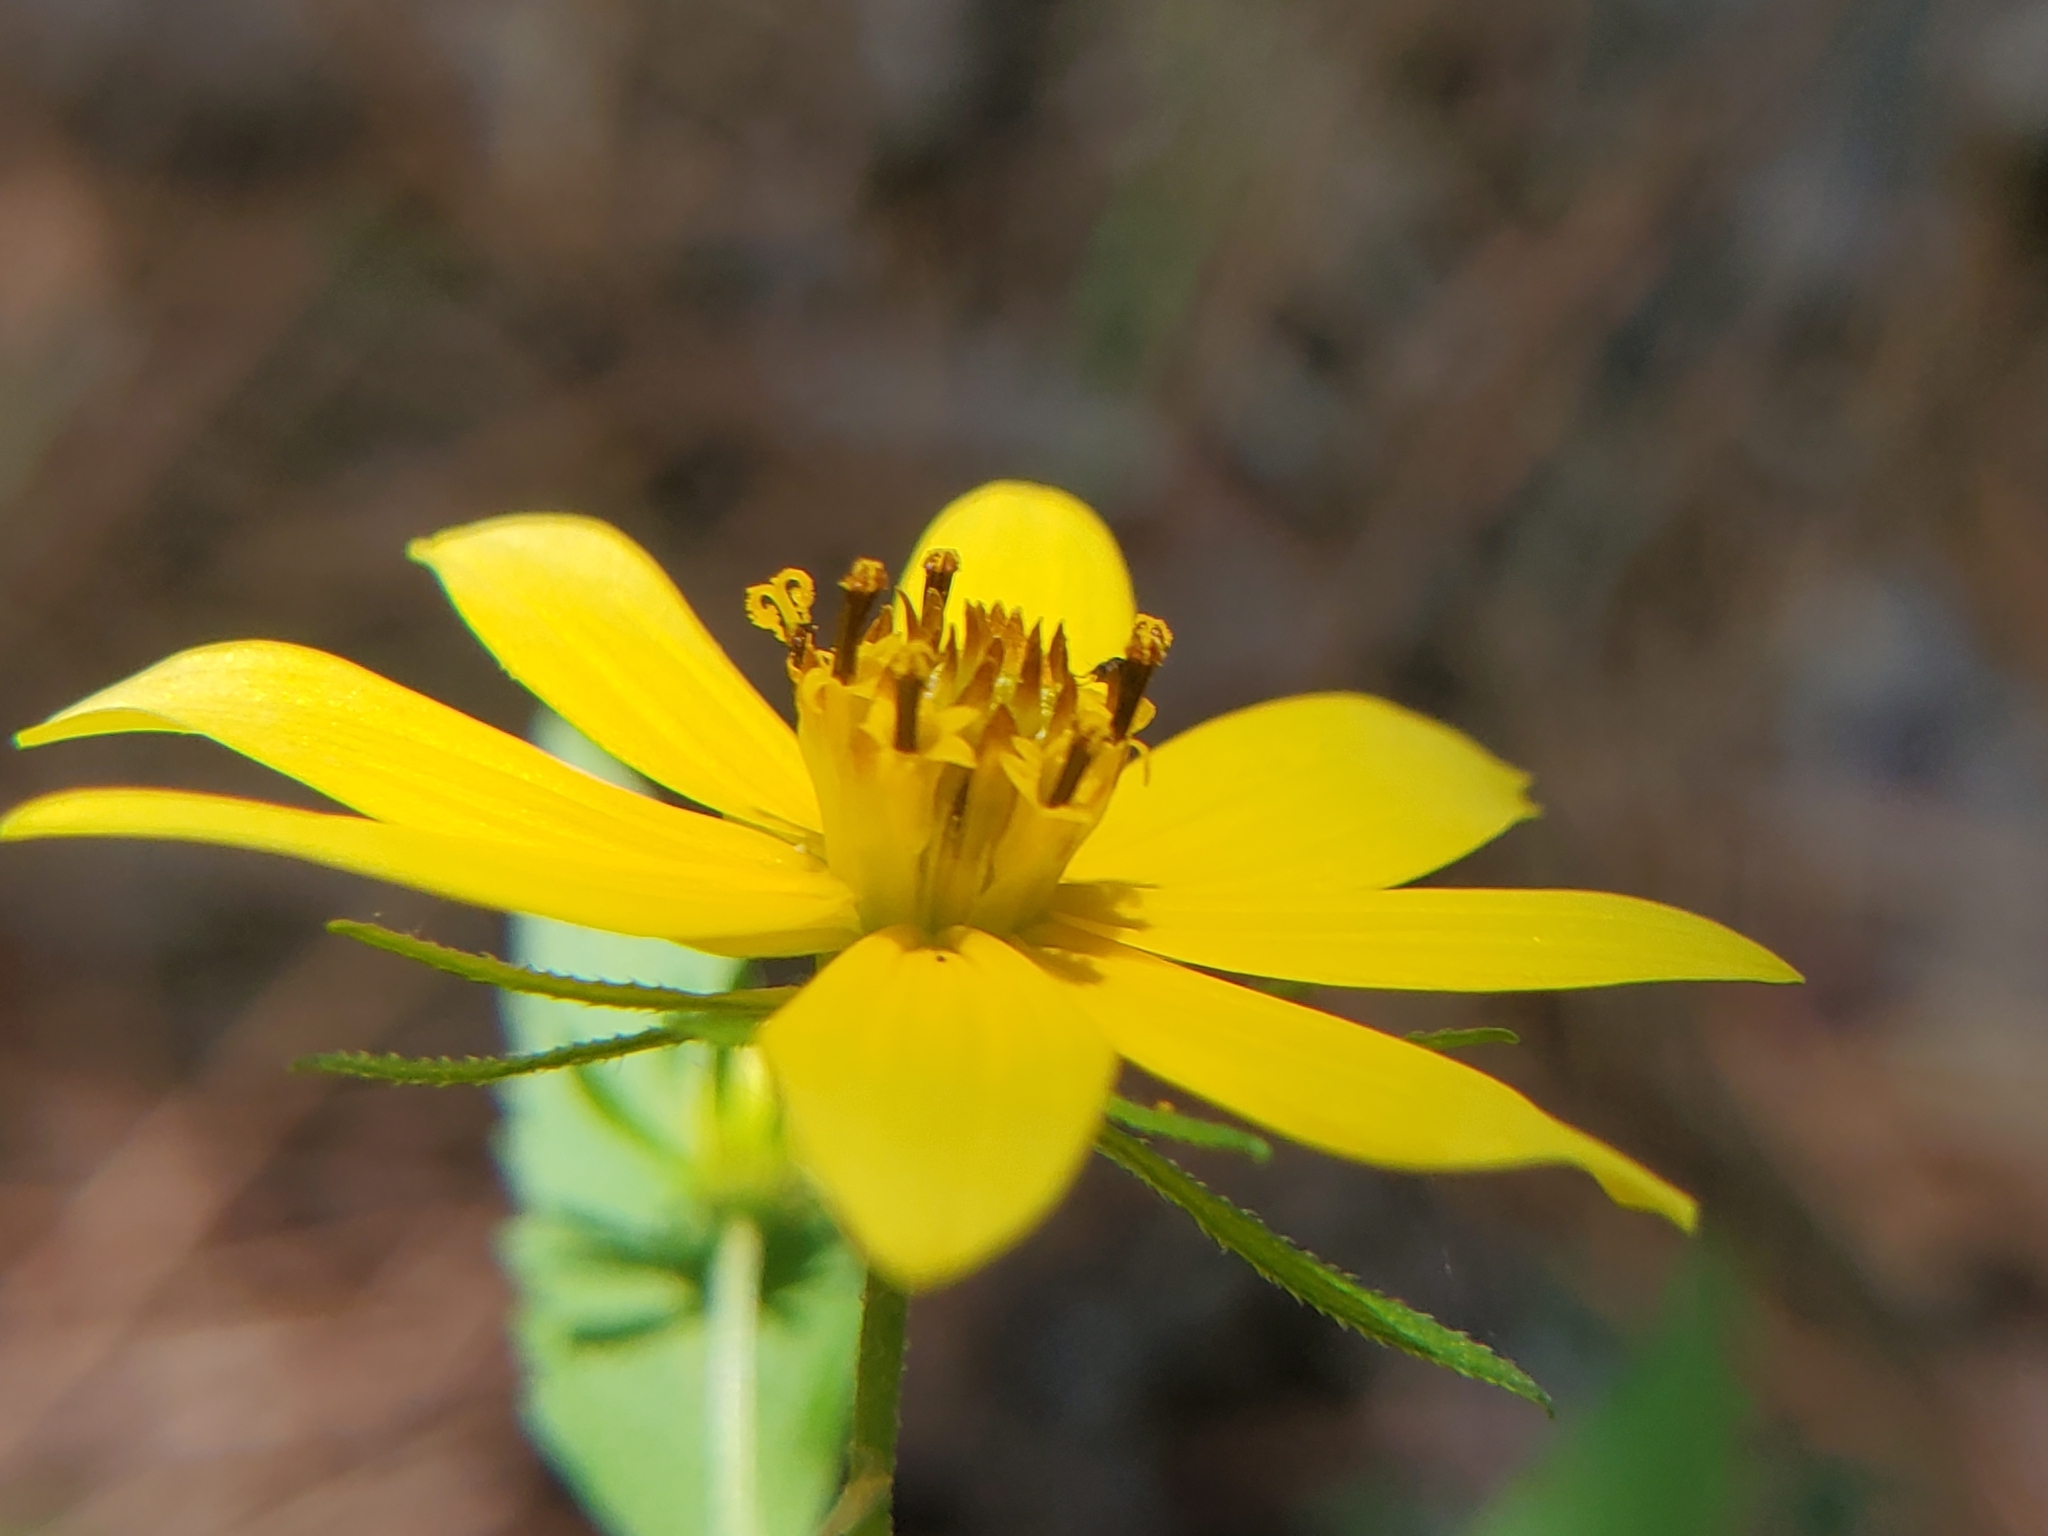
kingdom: Plantae
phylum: Tracheophyta
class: Magnoliopsida
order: Asterales
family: Asteraceae
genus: Bidens
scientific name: Bidens aristosa
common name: Western tickseed
